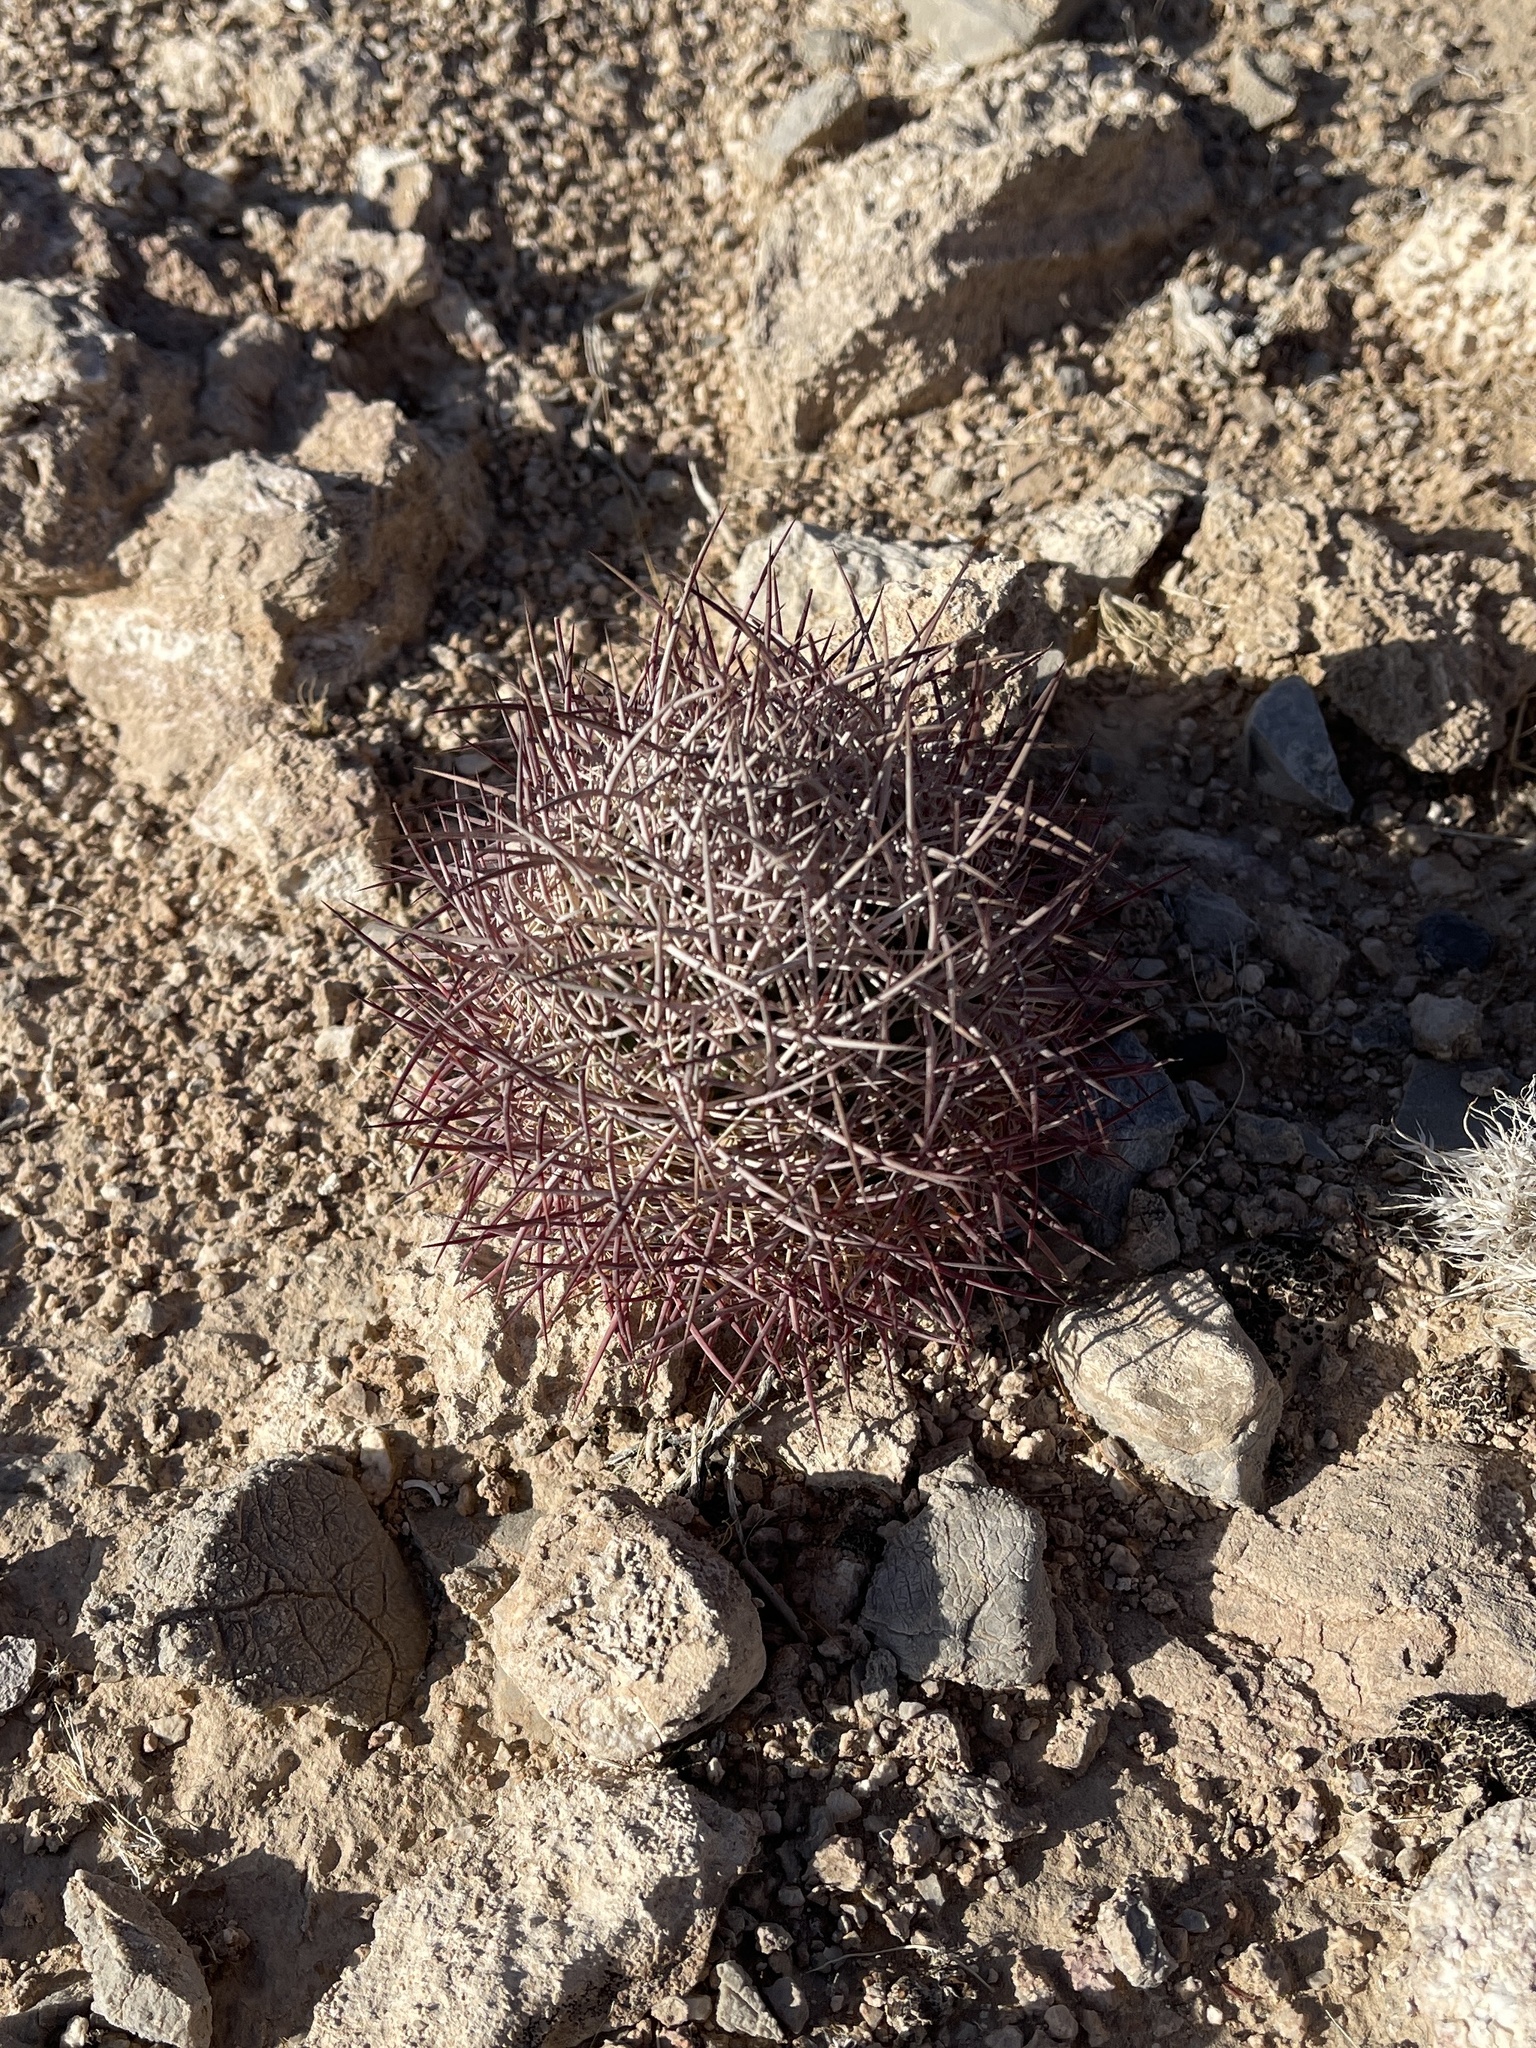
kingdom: Plantae
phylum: Tracheophyta
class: Magnoliopsida
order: Caryophyllales
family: Cactaceae
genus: Sclerocactus
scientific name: Sclerocactus johnsonii
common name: Eight-spine fishhook cactus
